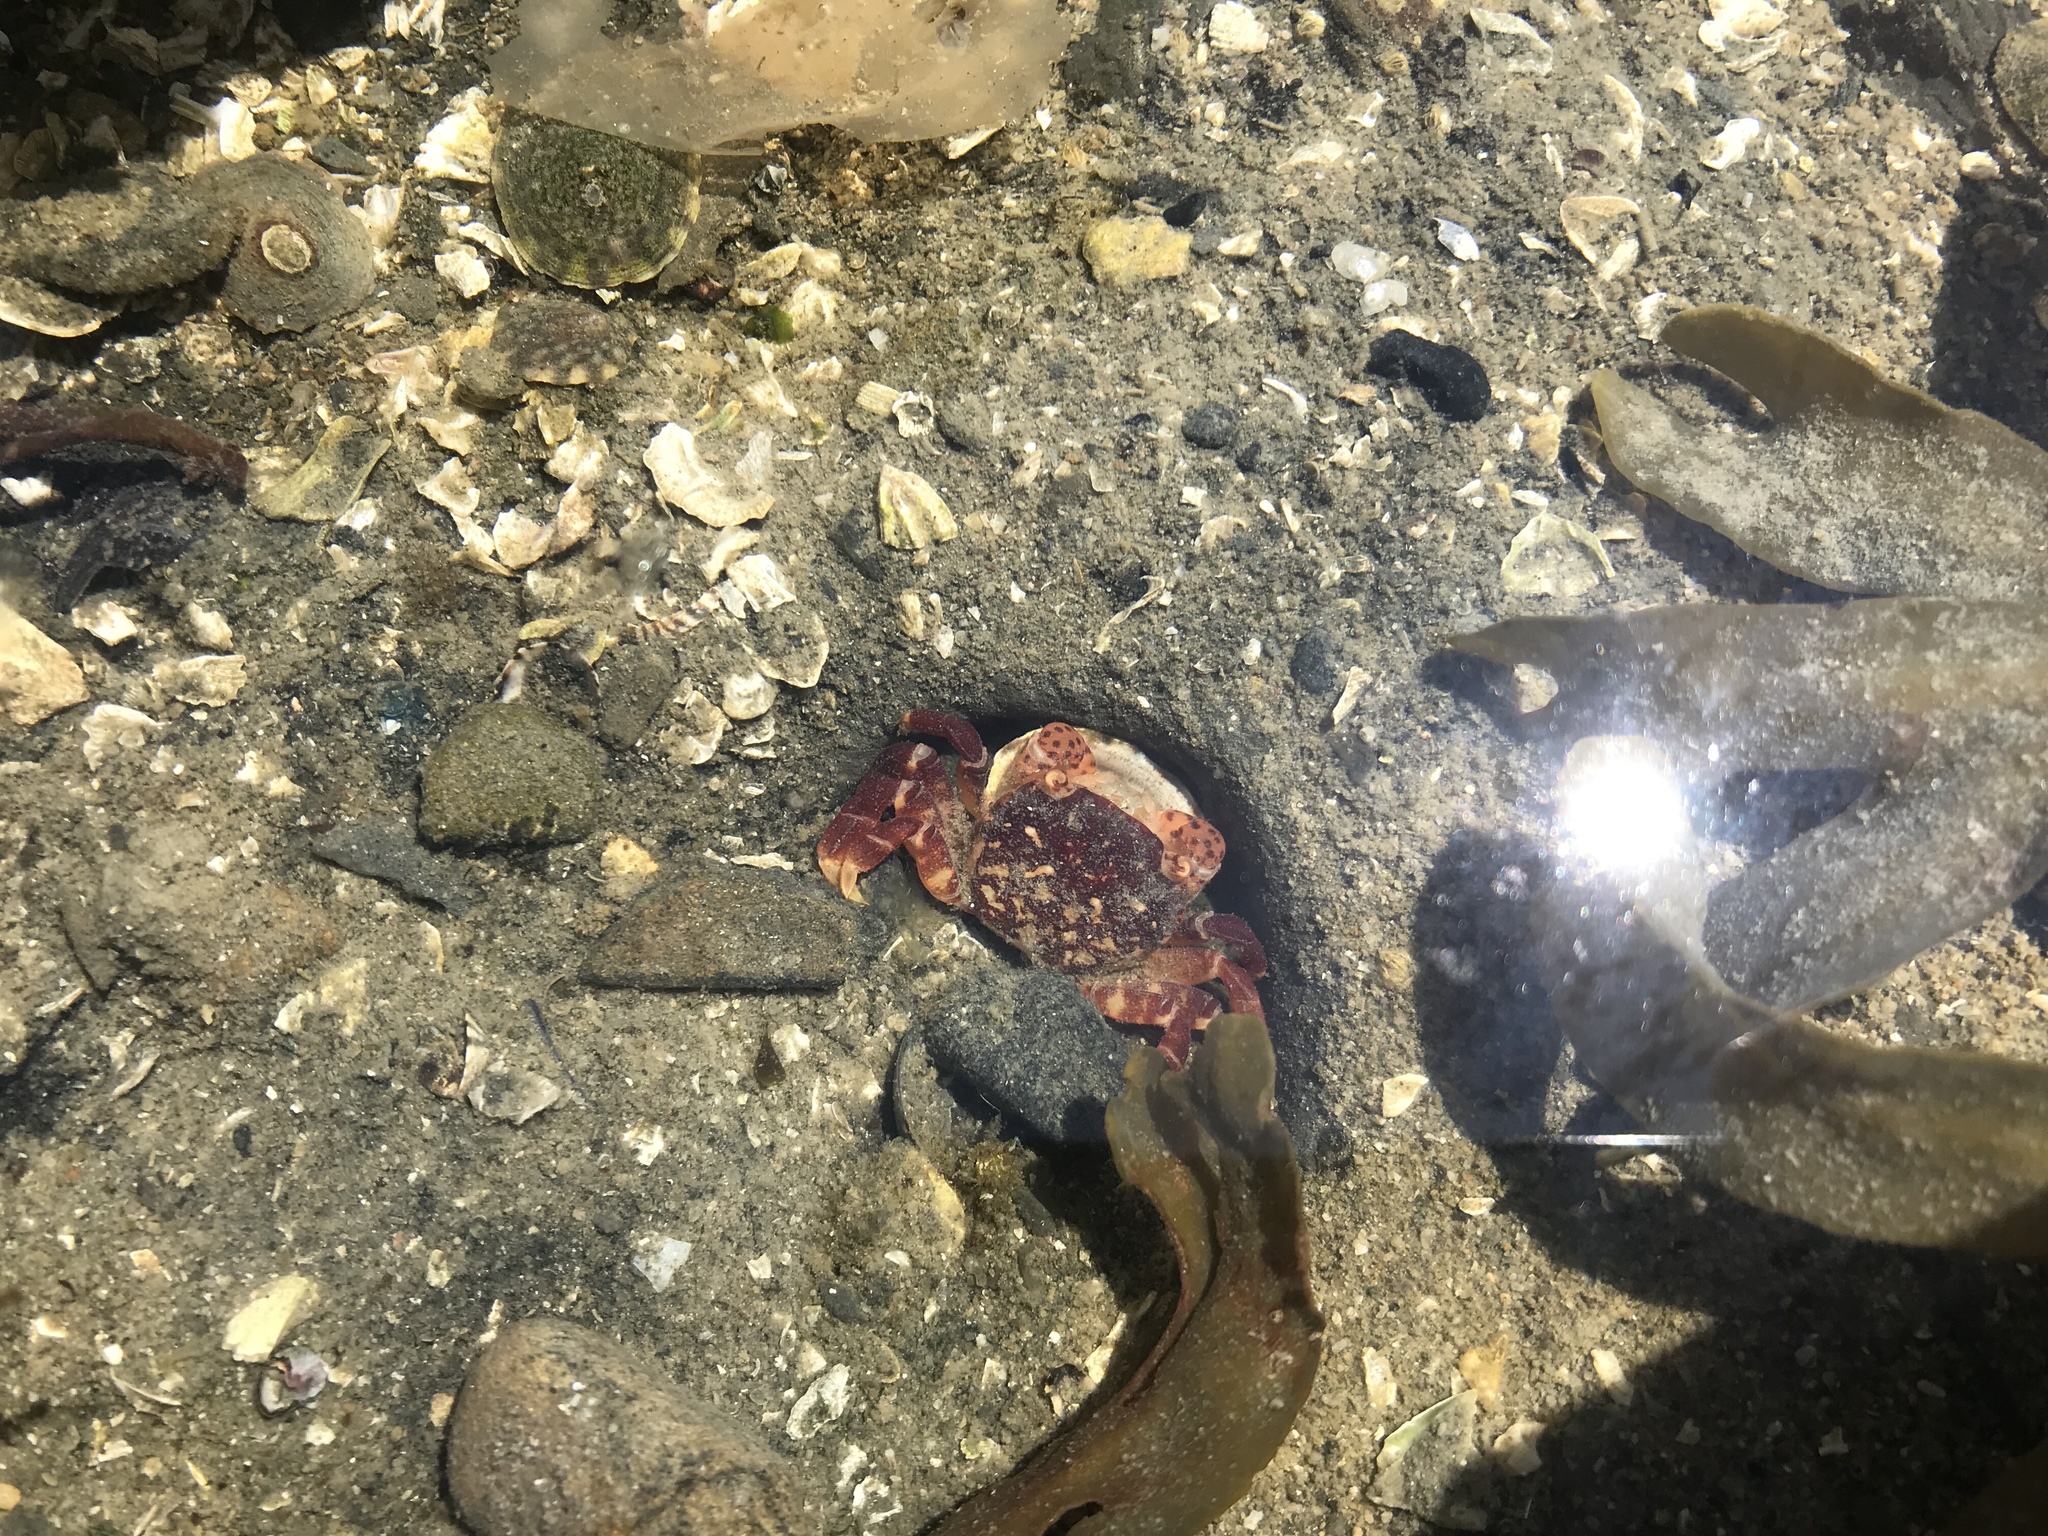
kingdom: Animalia
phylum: Arthropoda
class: Malacostraca
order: Decapoda
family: Varunidae
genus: Hemigrapsus
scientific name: Hemigrapsus nudus
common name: Purple shore crab
